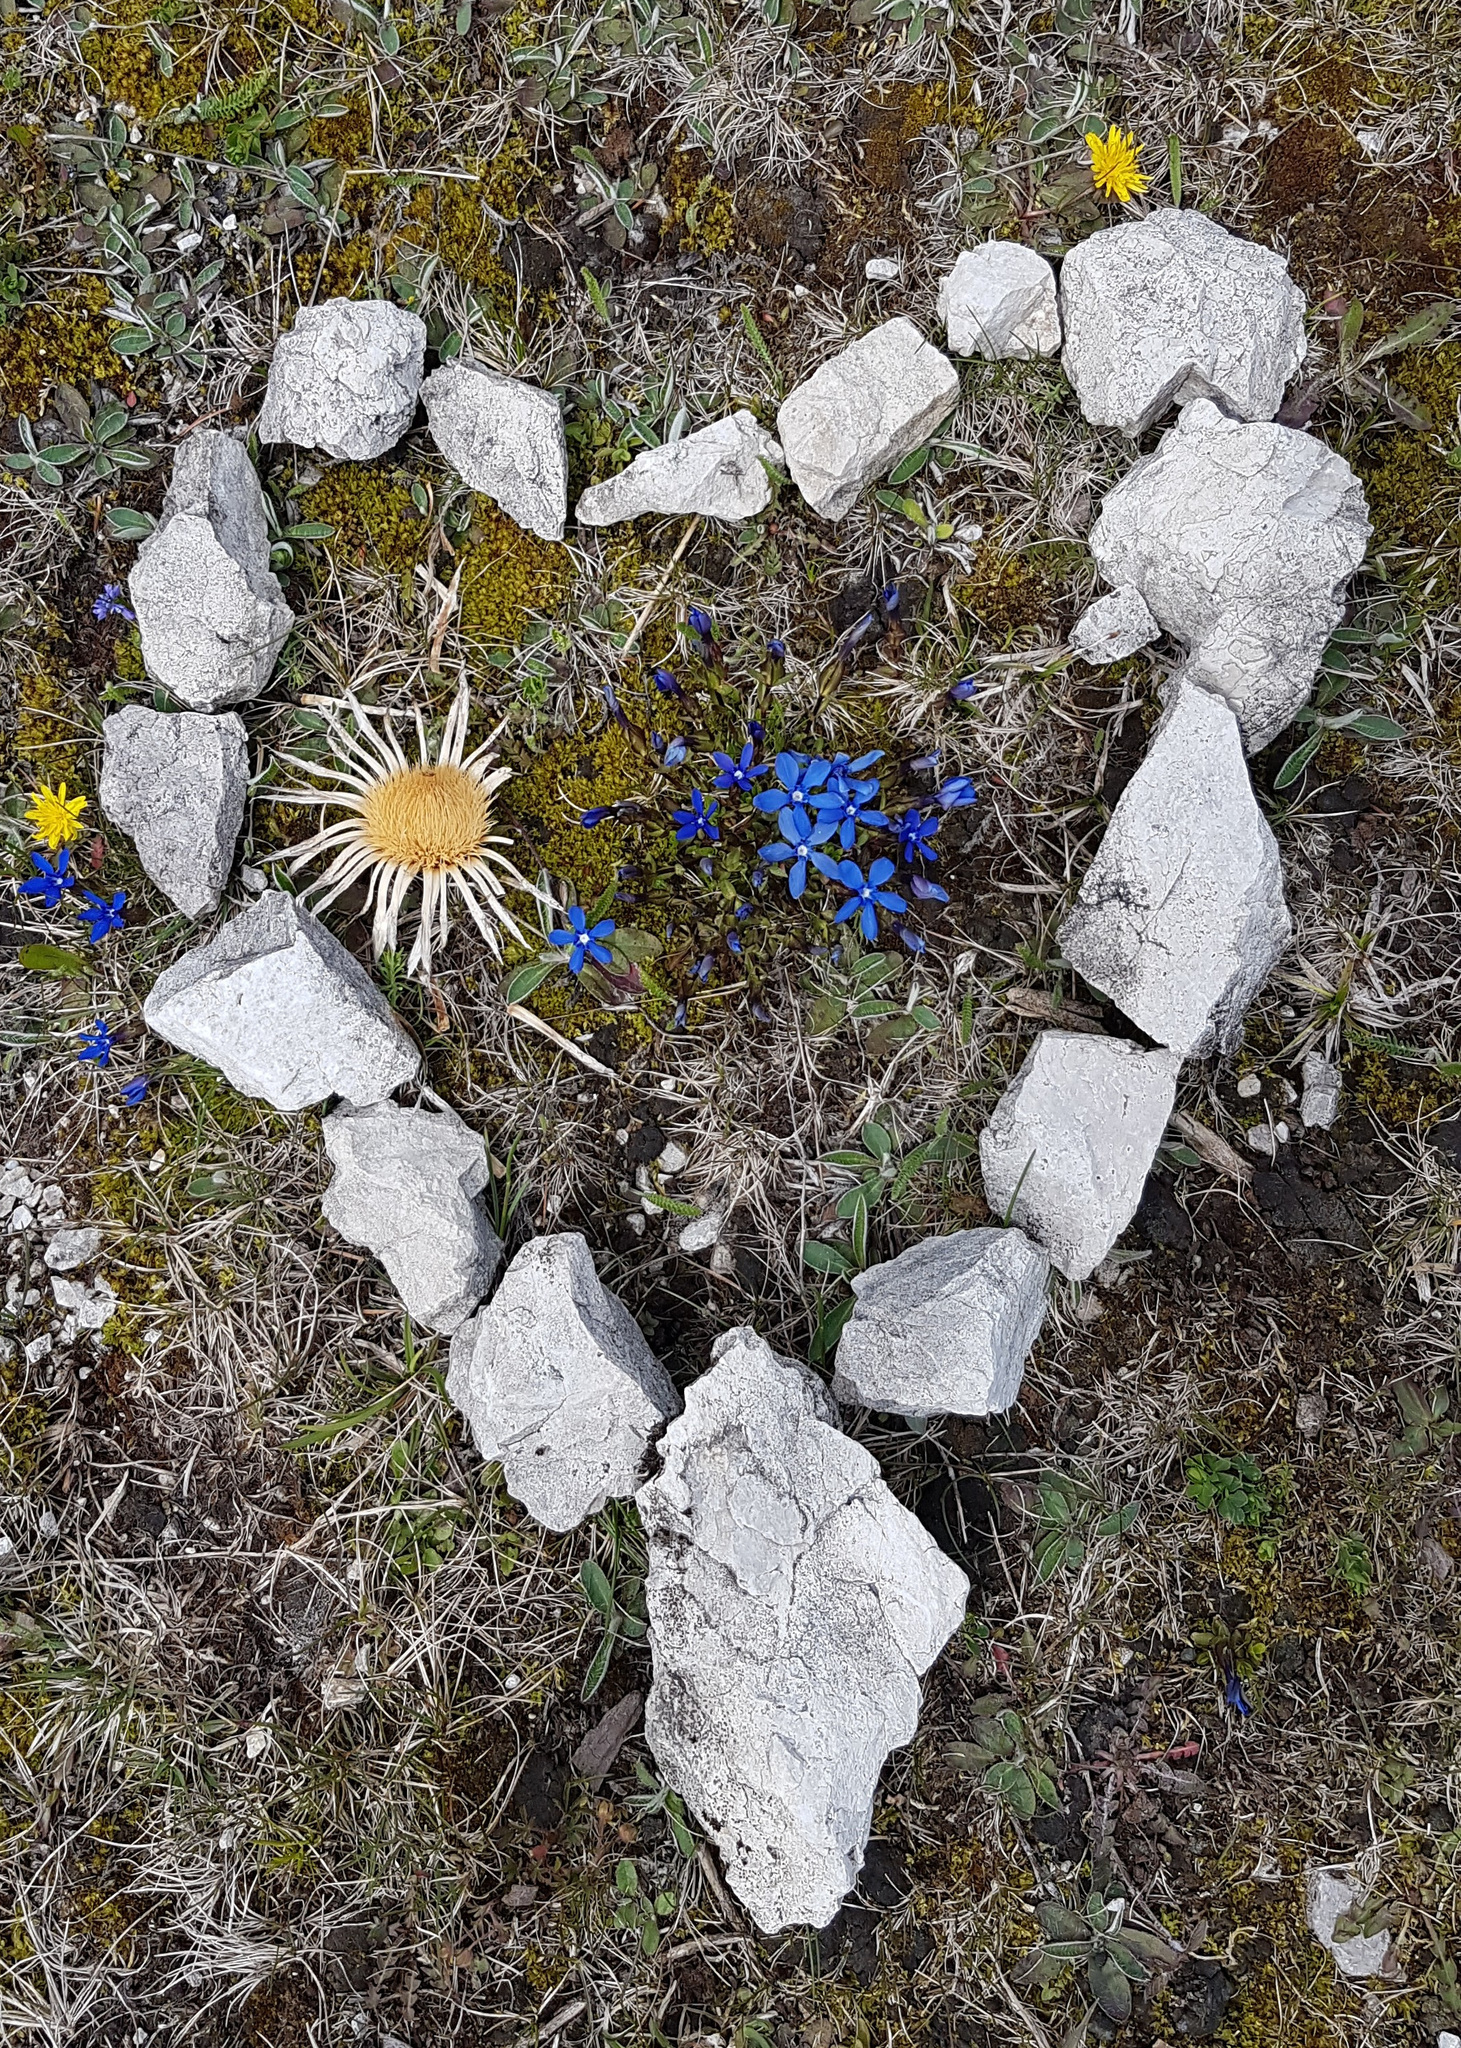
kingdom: Plantae
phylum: Tracheophyta
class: Magnoliopsida
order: Asterales
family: Asteraceae
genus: Carlina
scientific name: Carlina acaulis
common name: Stemless carline thistle
